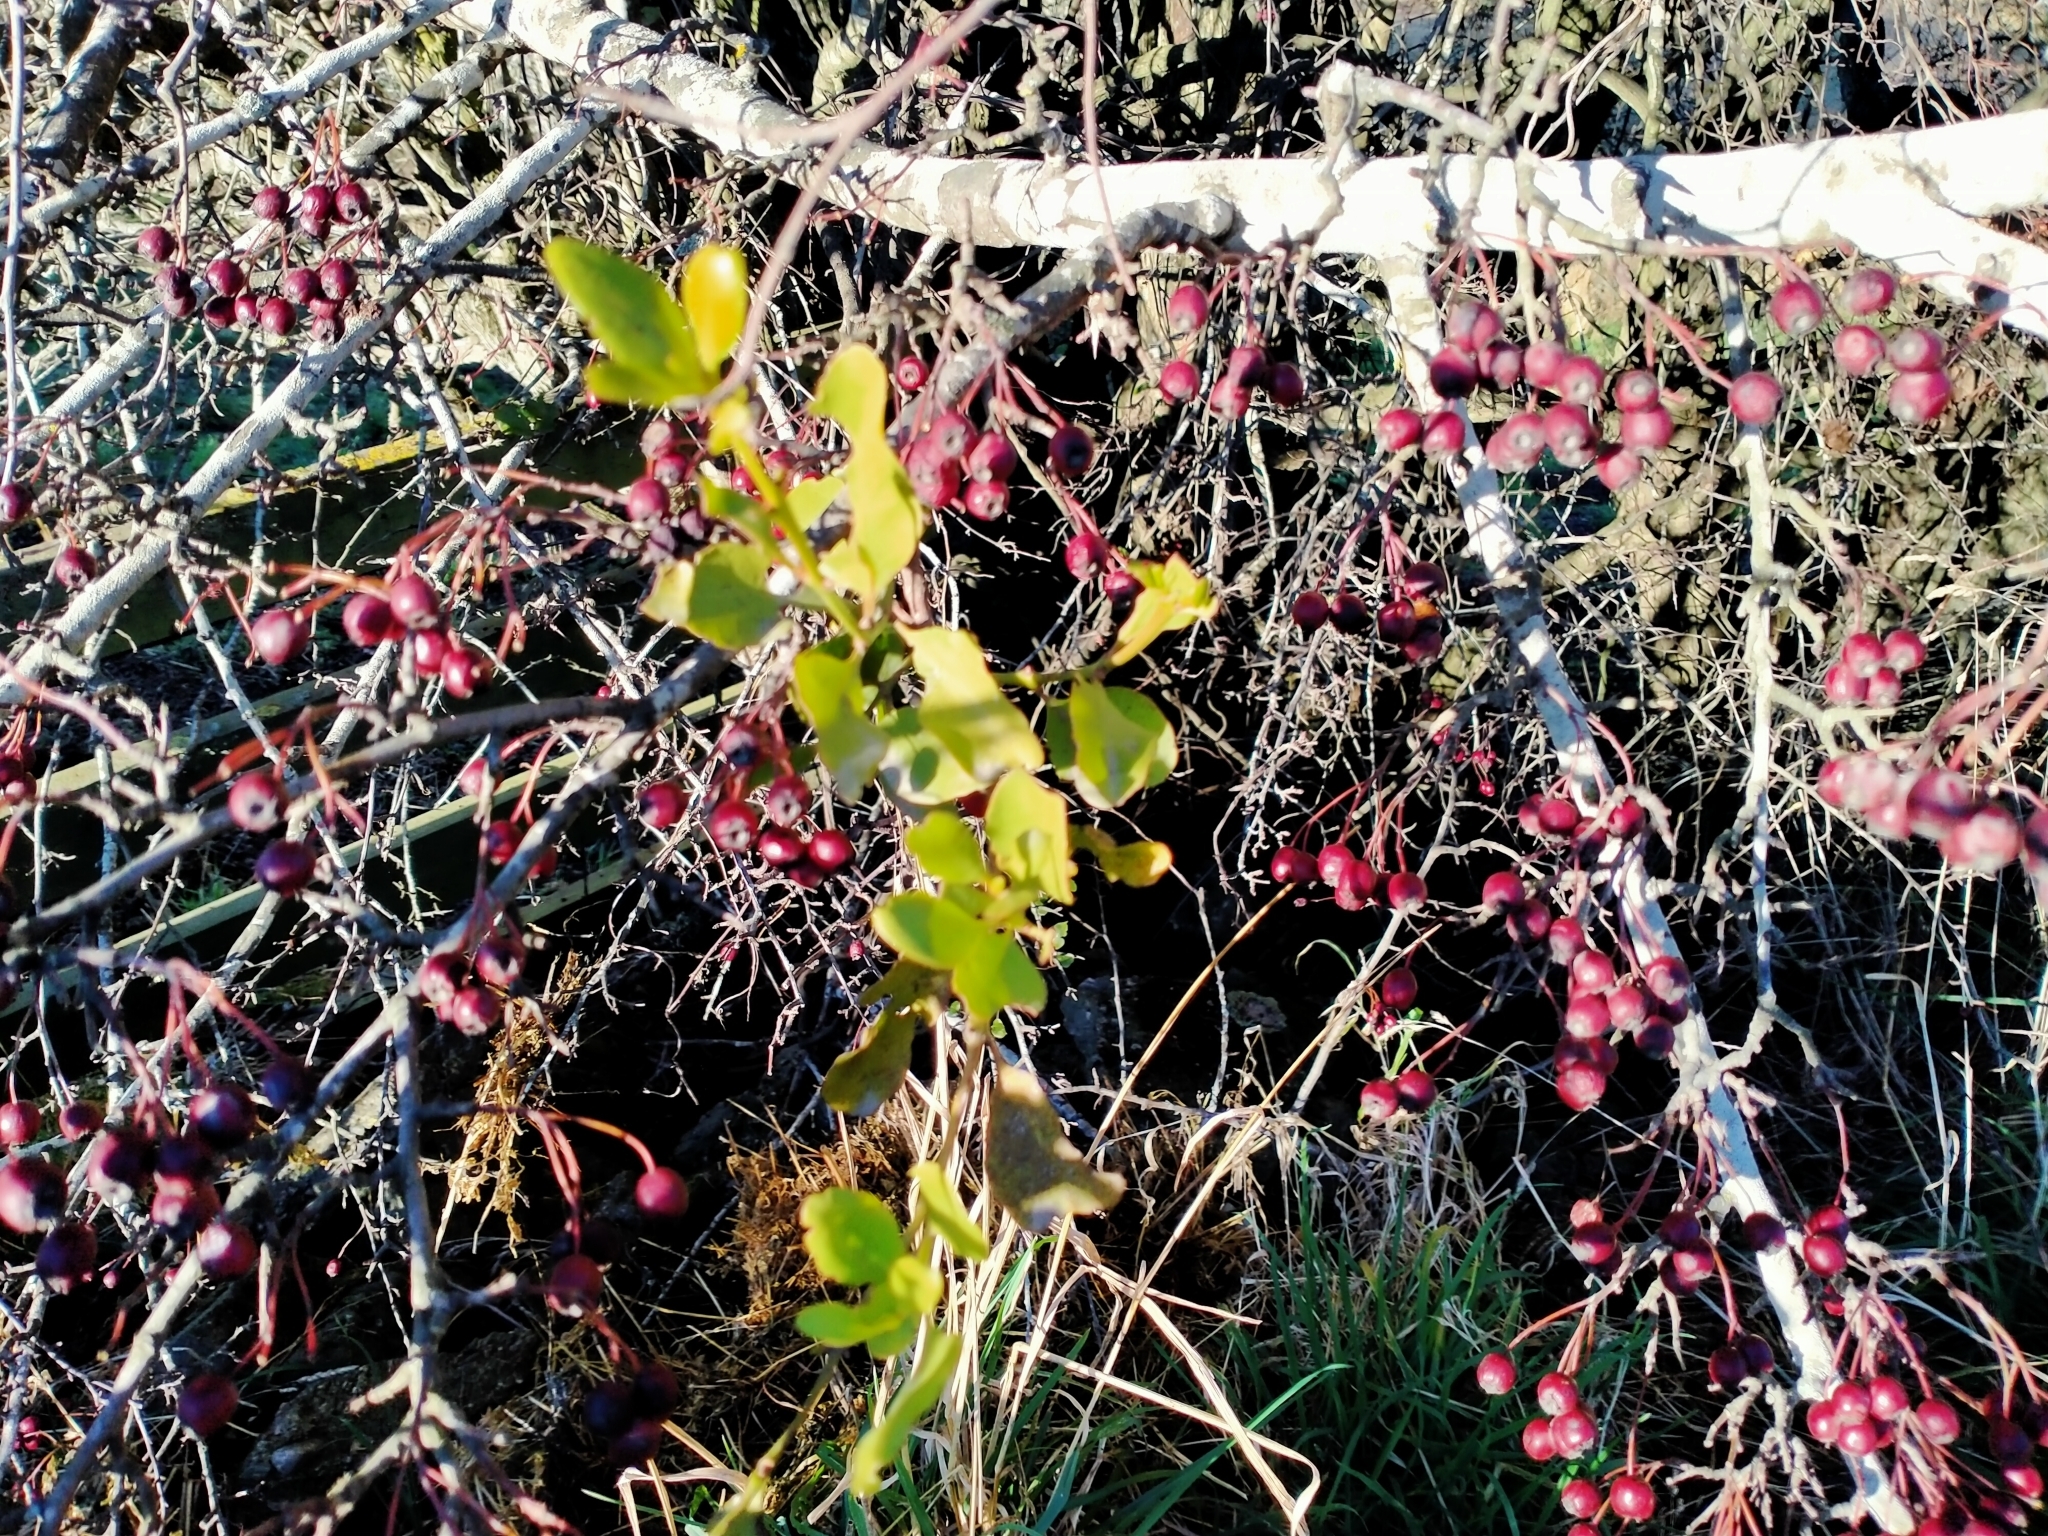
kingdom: Plantae
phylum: Tracheophyta
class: Magnoliopsida
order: Santalales
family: Loranthaceae
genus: Ileostylus
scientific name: Ileostylus micranthus
